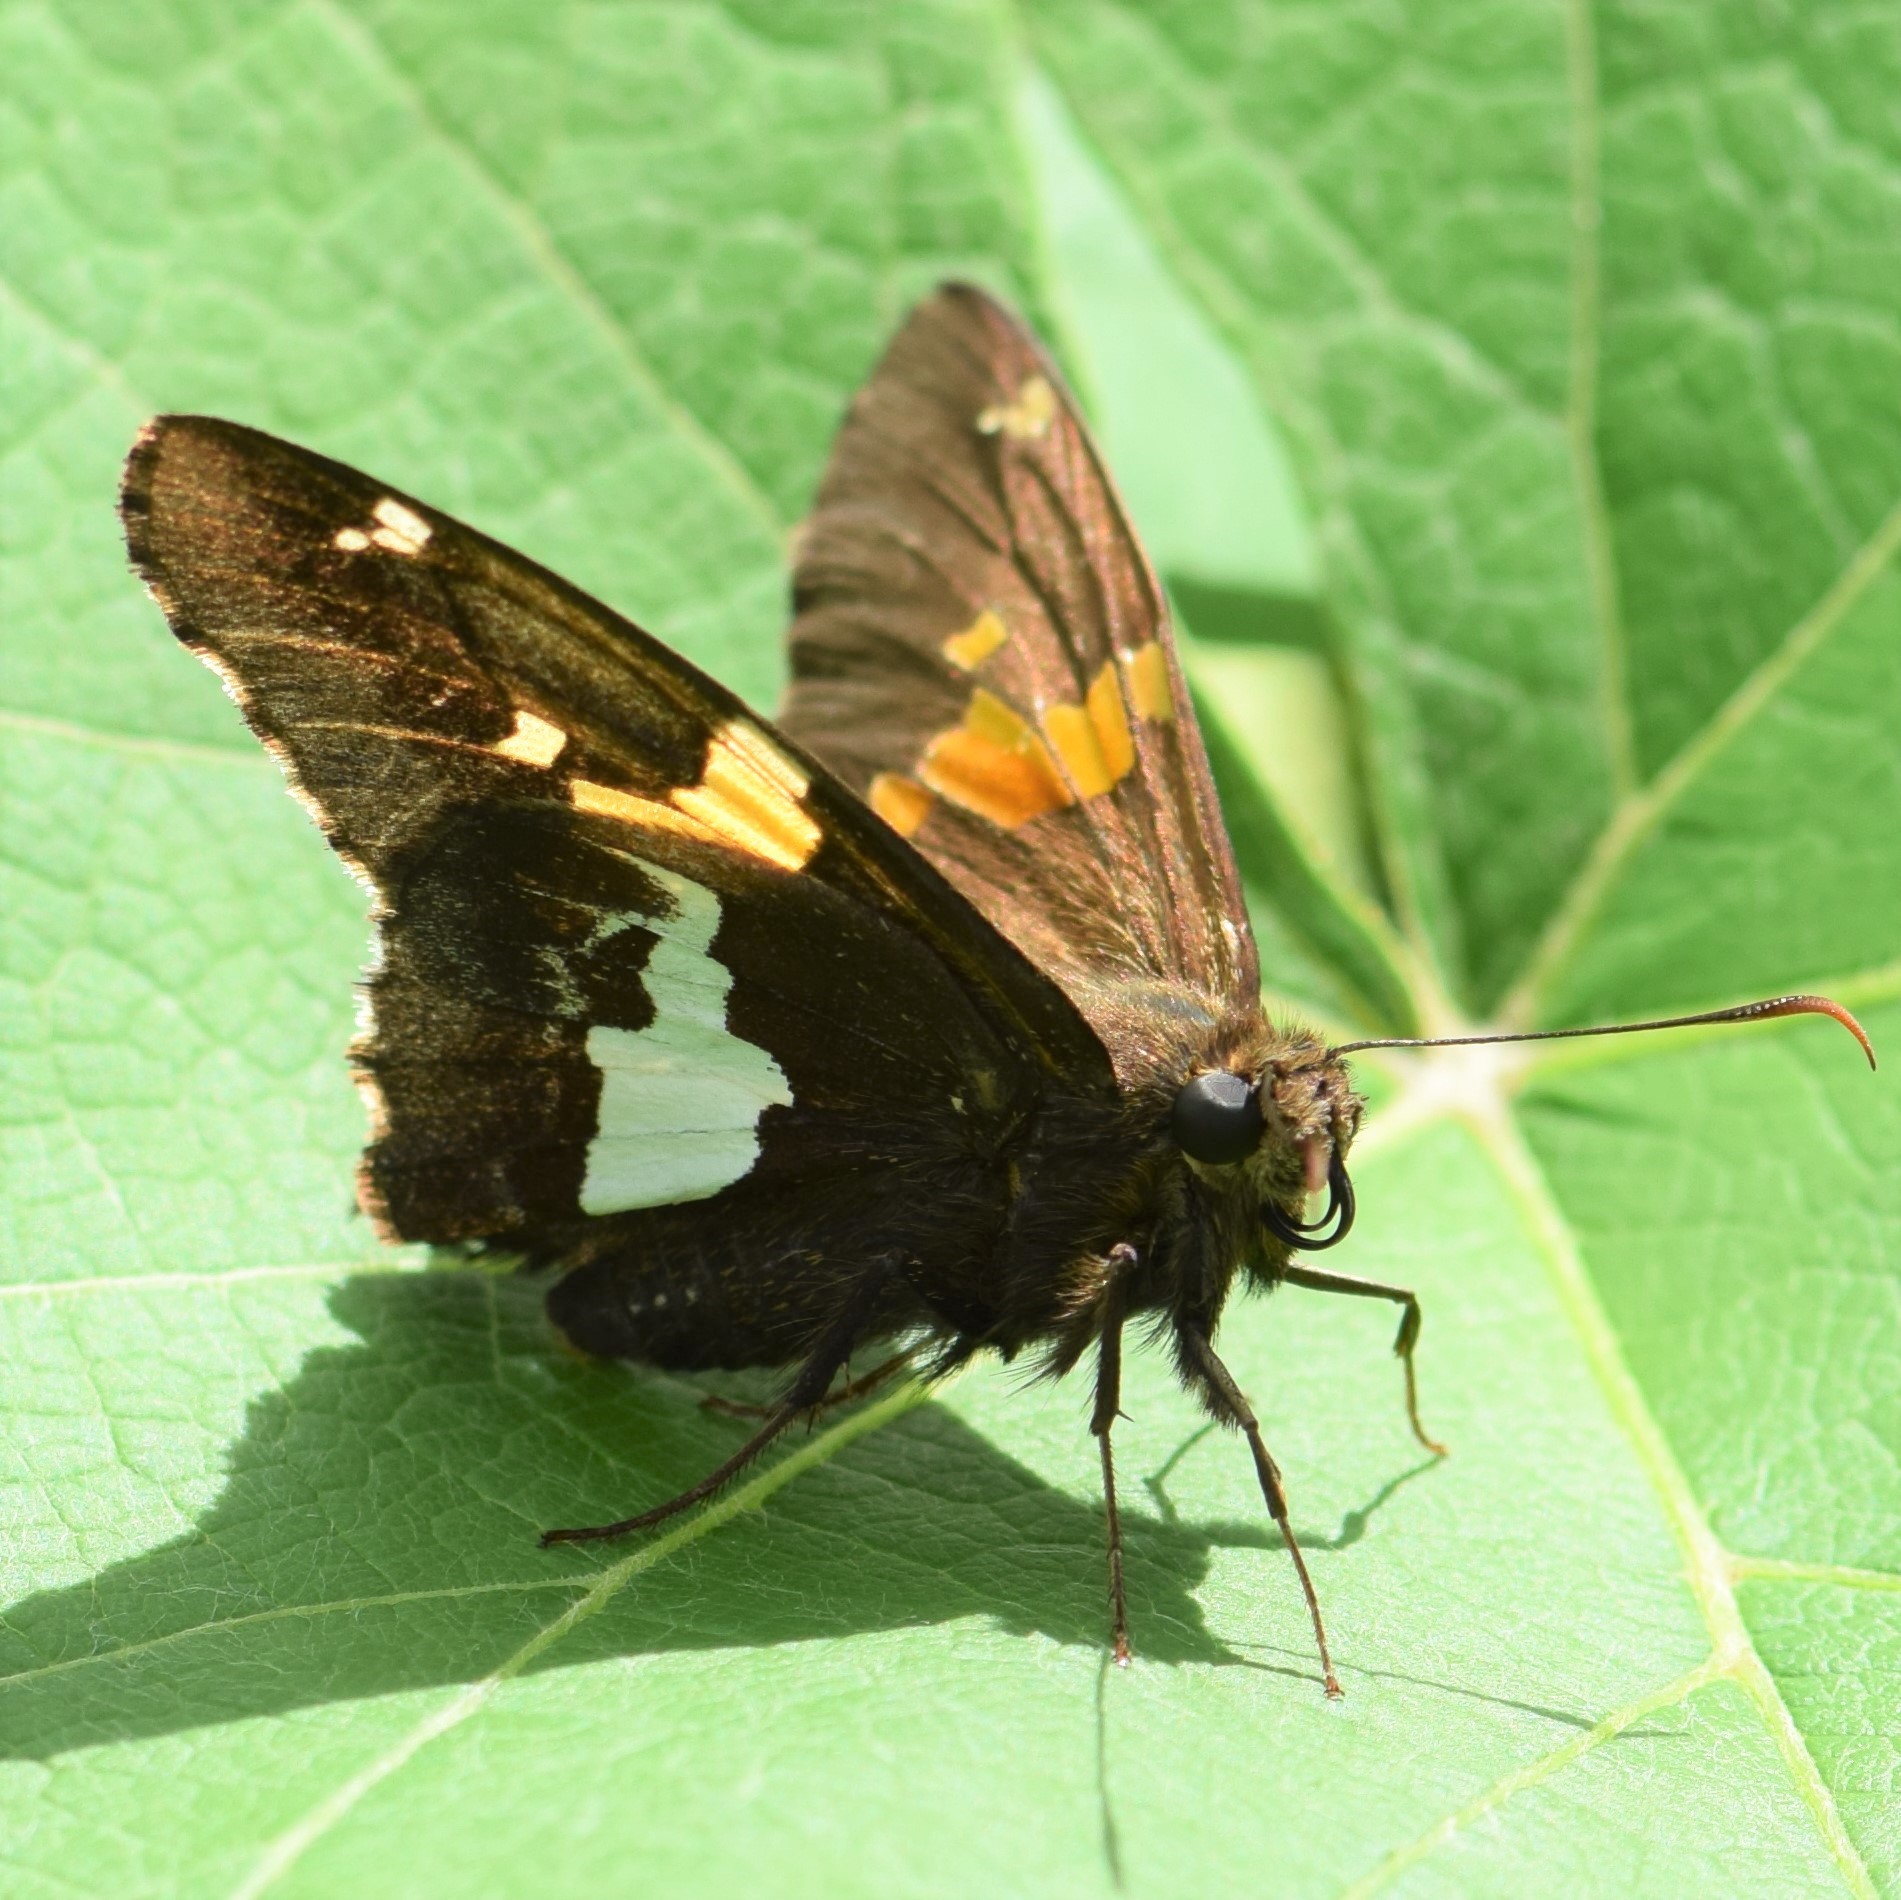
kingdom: Animalia
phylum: Arthropoda
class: Insecta
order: Lepidoptera
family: Hesperiidae
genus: Epargyreus
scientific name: Epargyreus clarus
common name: Silver-spotted skipper
